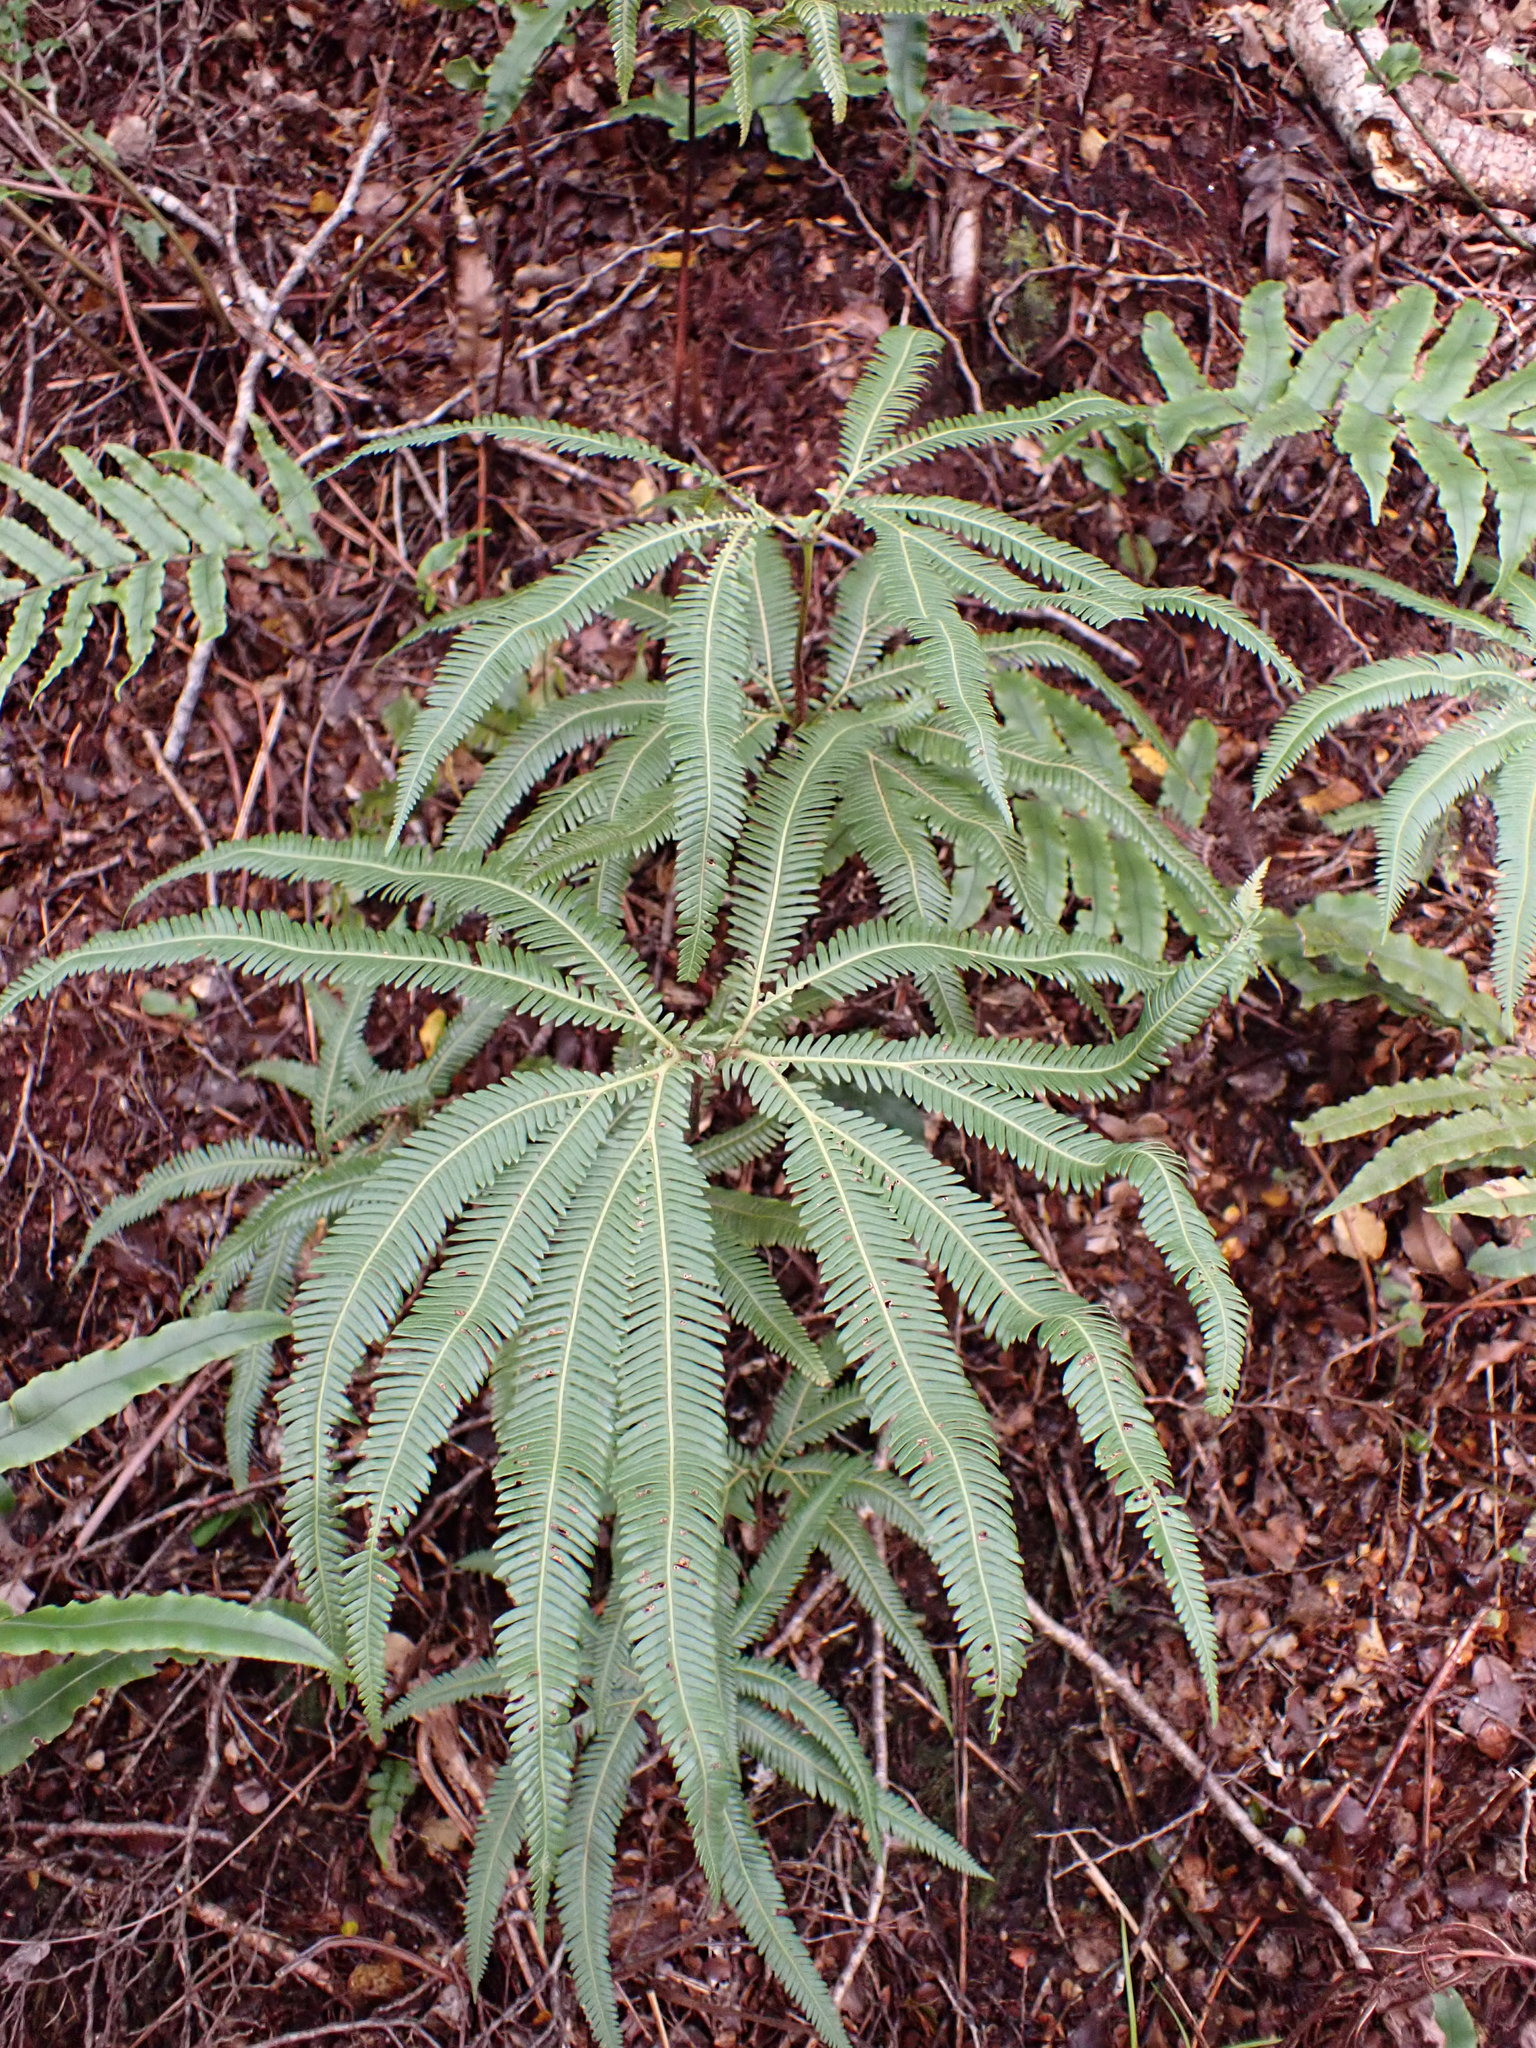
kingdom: Plantae
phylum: Tracheophyta
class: Polypodiopsida
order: Gleicheniales
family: Gleicheniaceae
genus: Sticherus
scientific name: Sticherus cunninghamii
